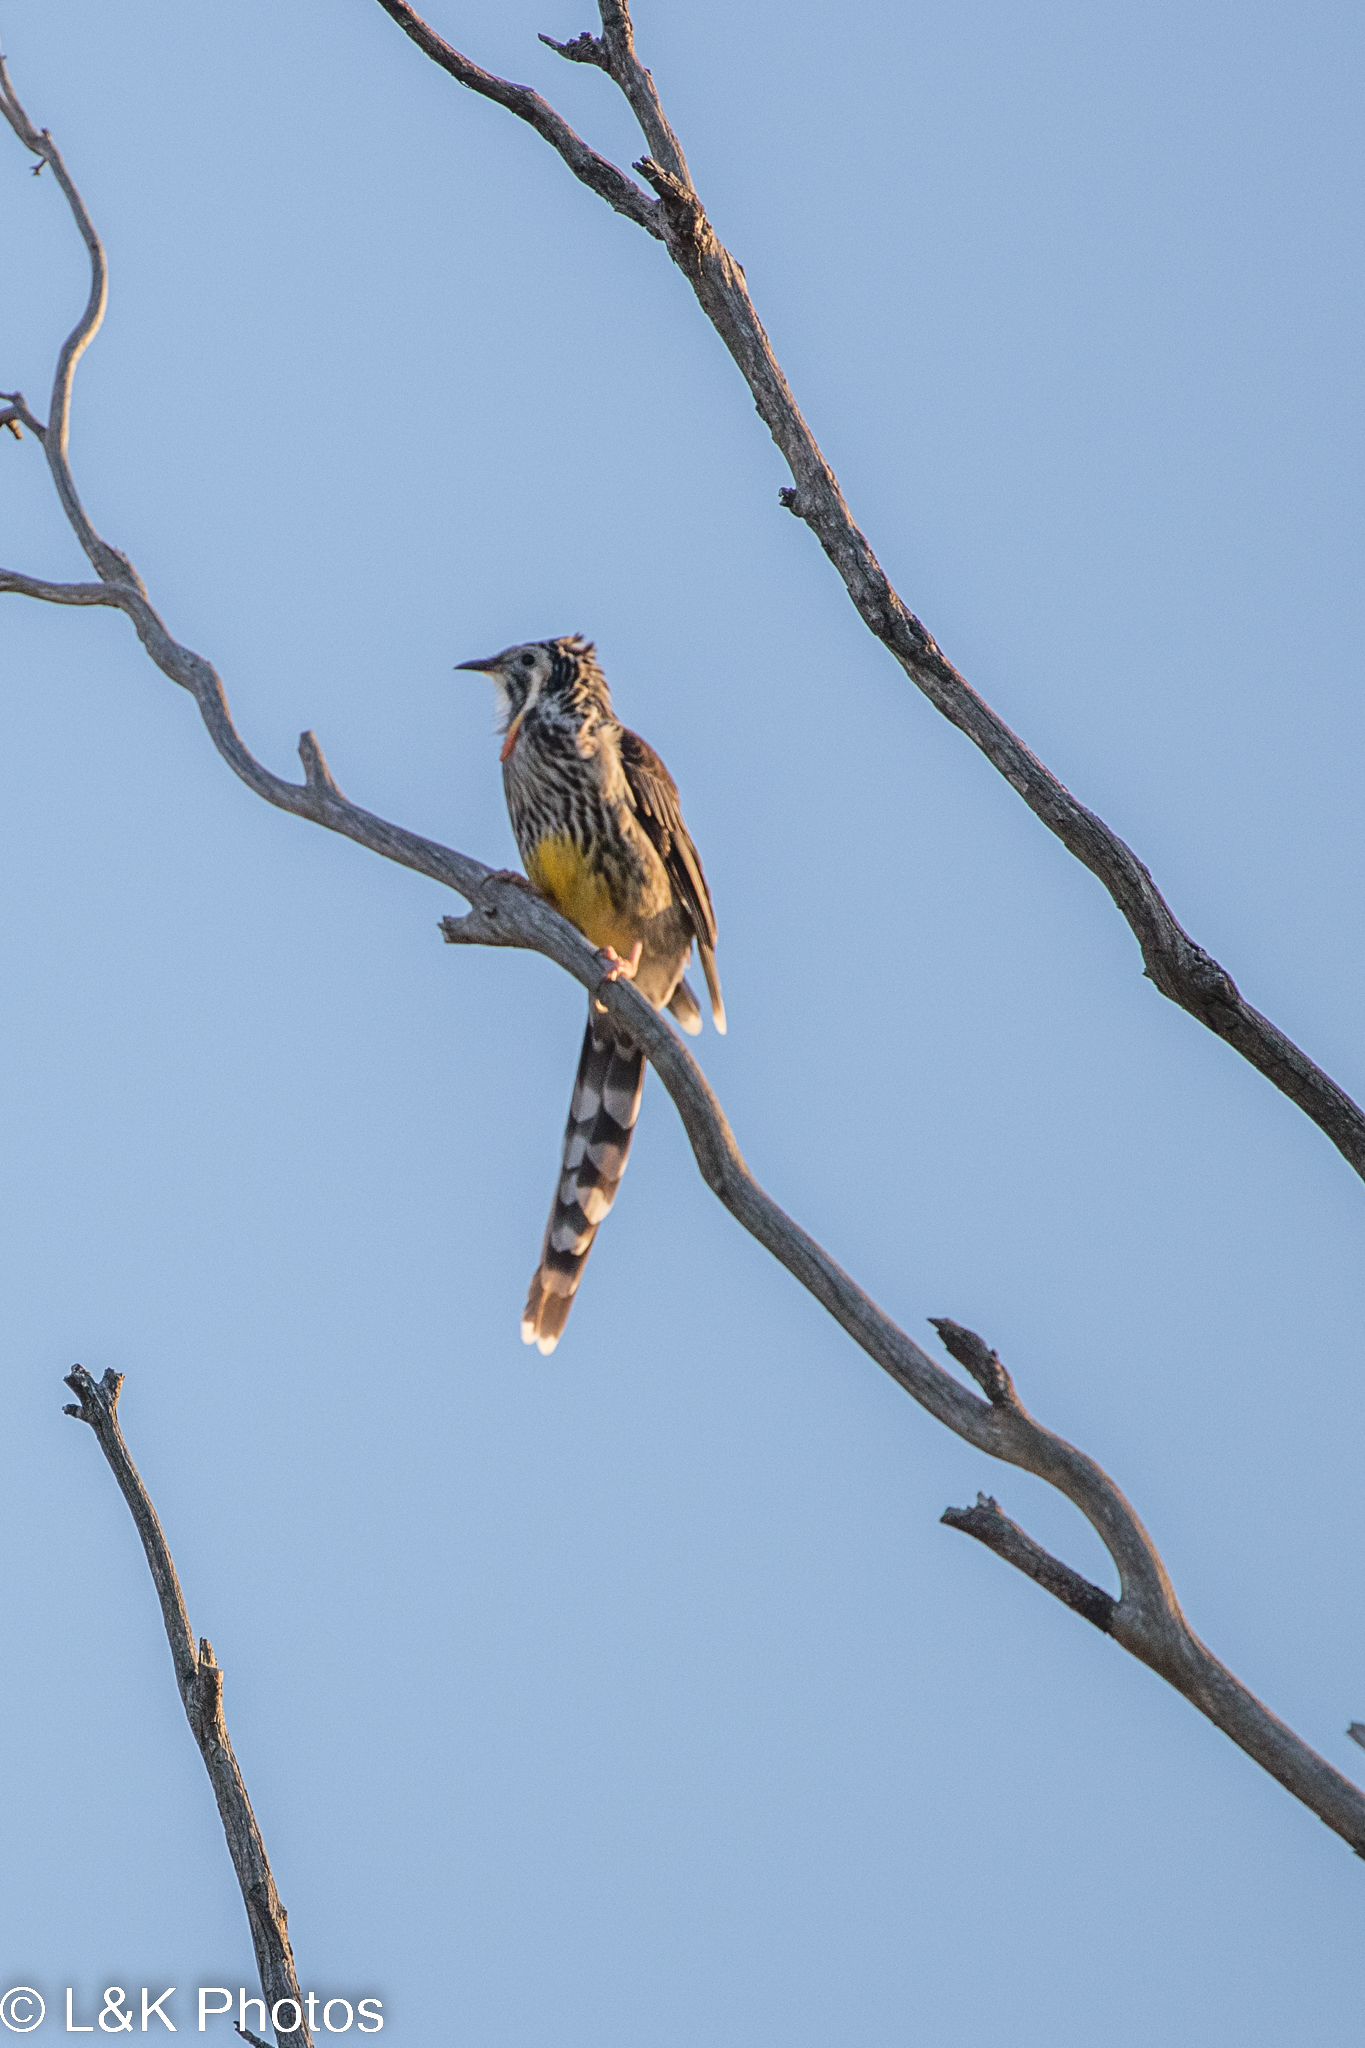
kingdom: Animalia
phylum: Chordata
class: Aves
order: Passeriformes
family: Meliphagidae
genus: Anthochaera
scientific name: Anthochaera paradoxa
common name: Yellow wattlebird
